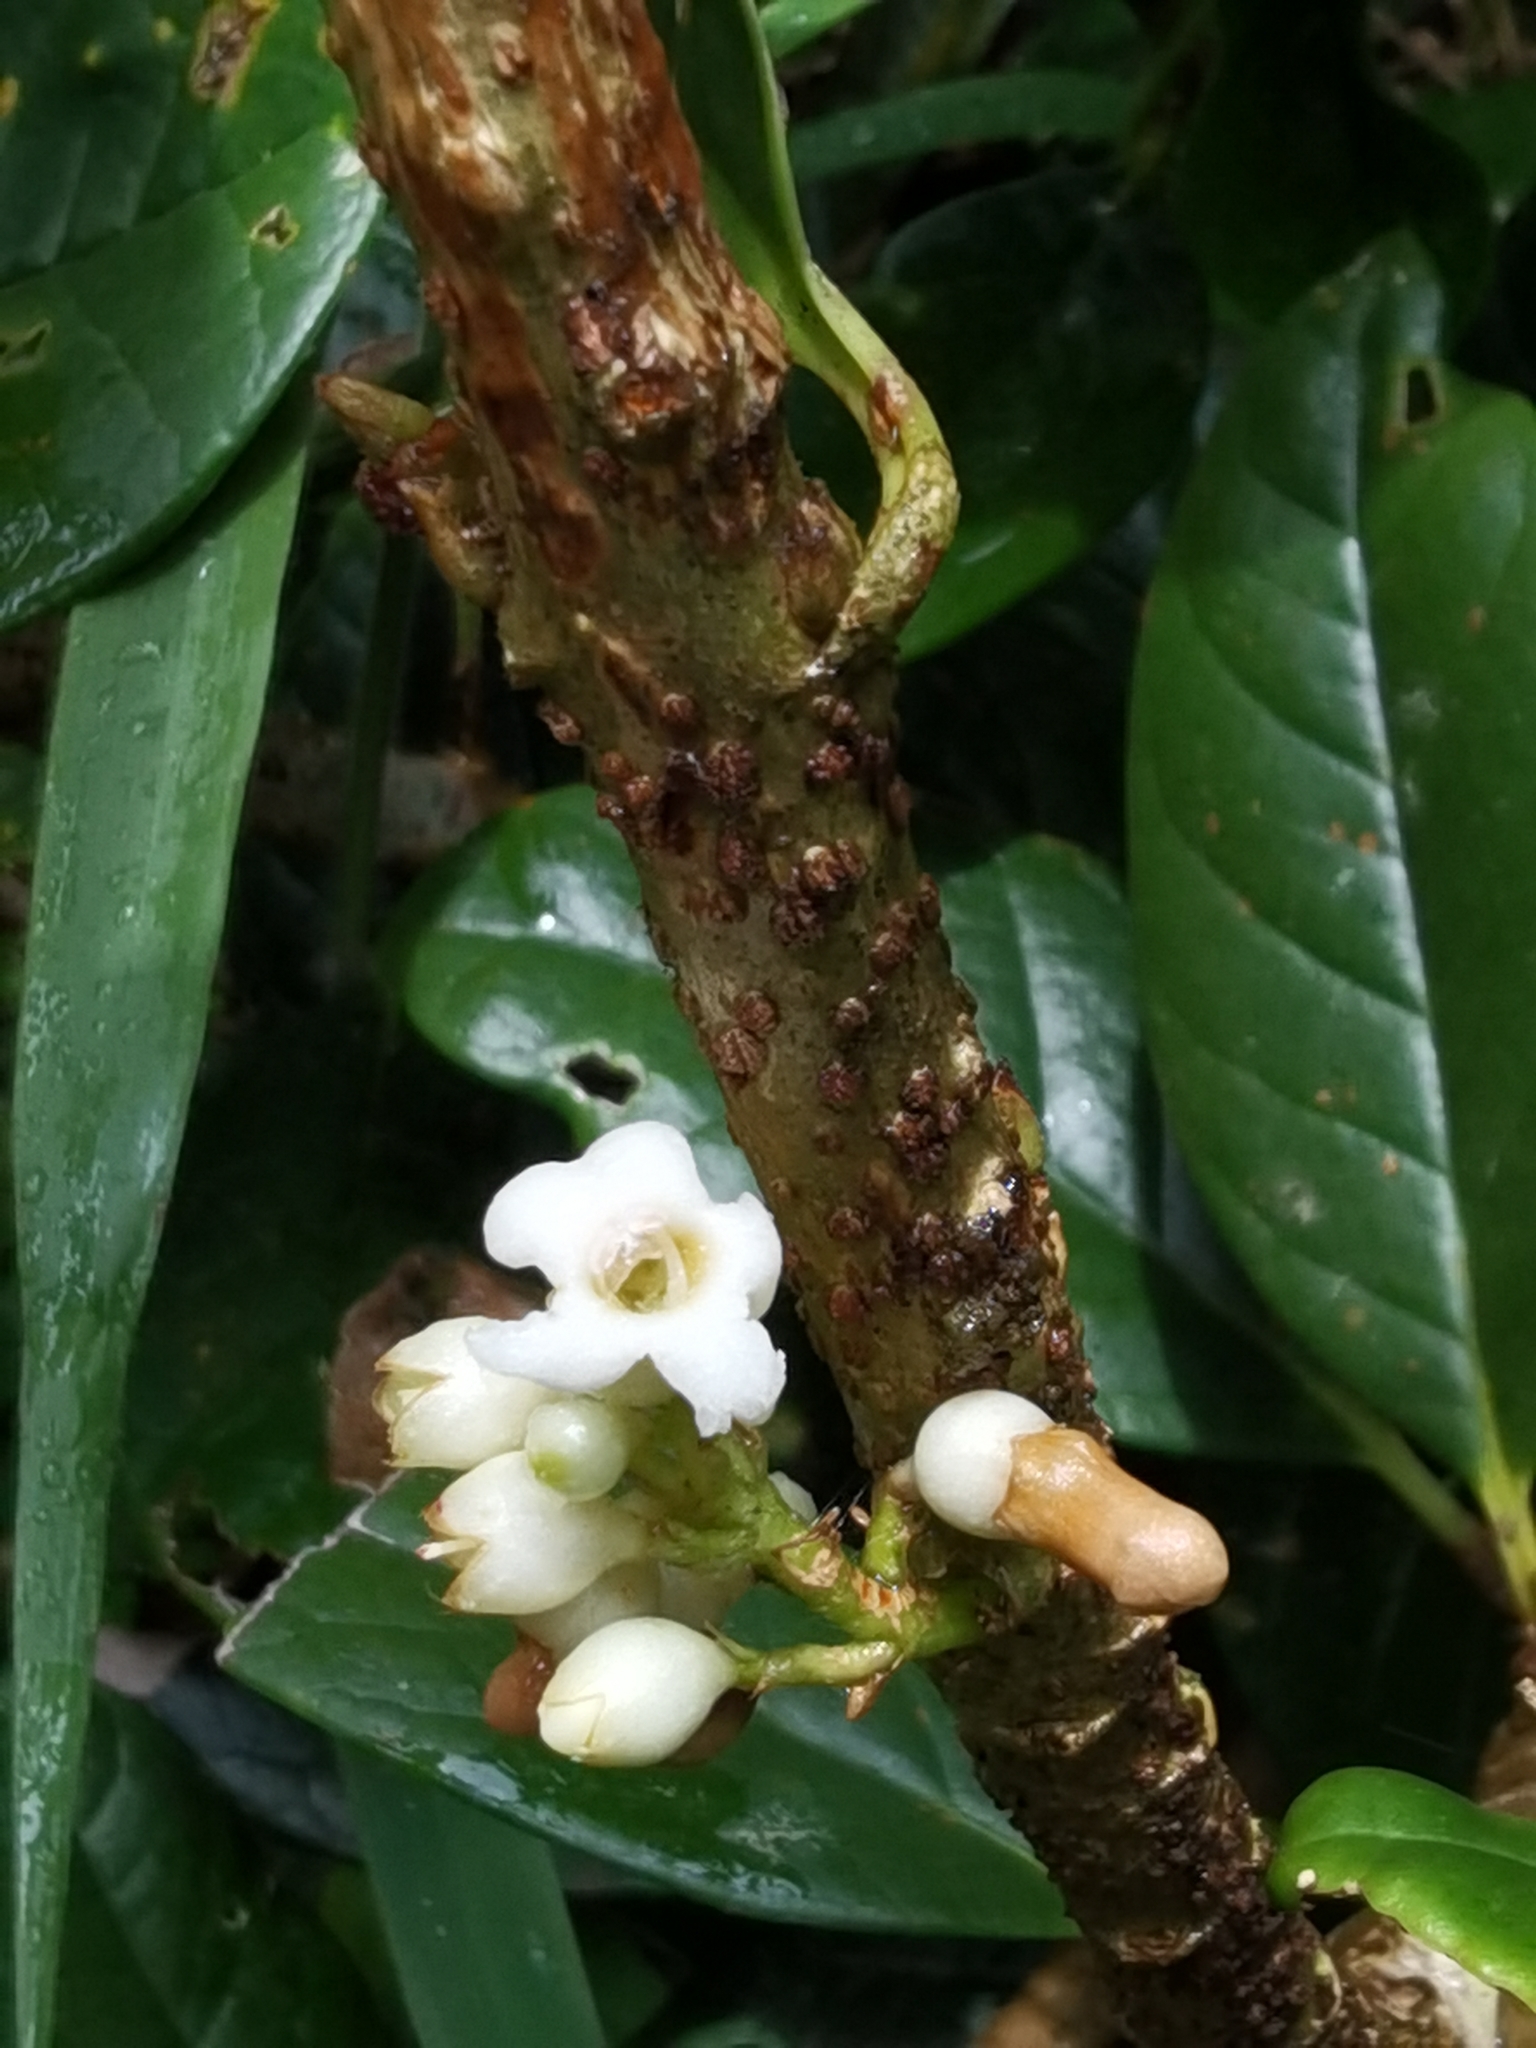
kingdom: Plantae
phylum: Tracheophyta
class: Magnoliopsida
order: Lamiales
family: Schlegeliaceae
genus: Schlegelia
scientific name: Schlegelia parviflora
